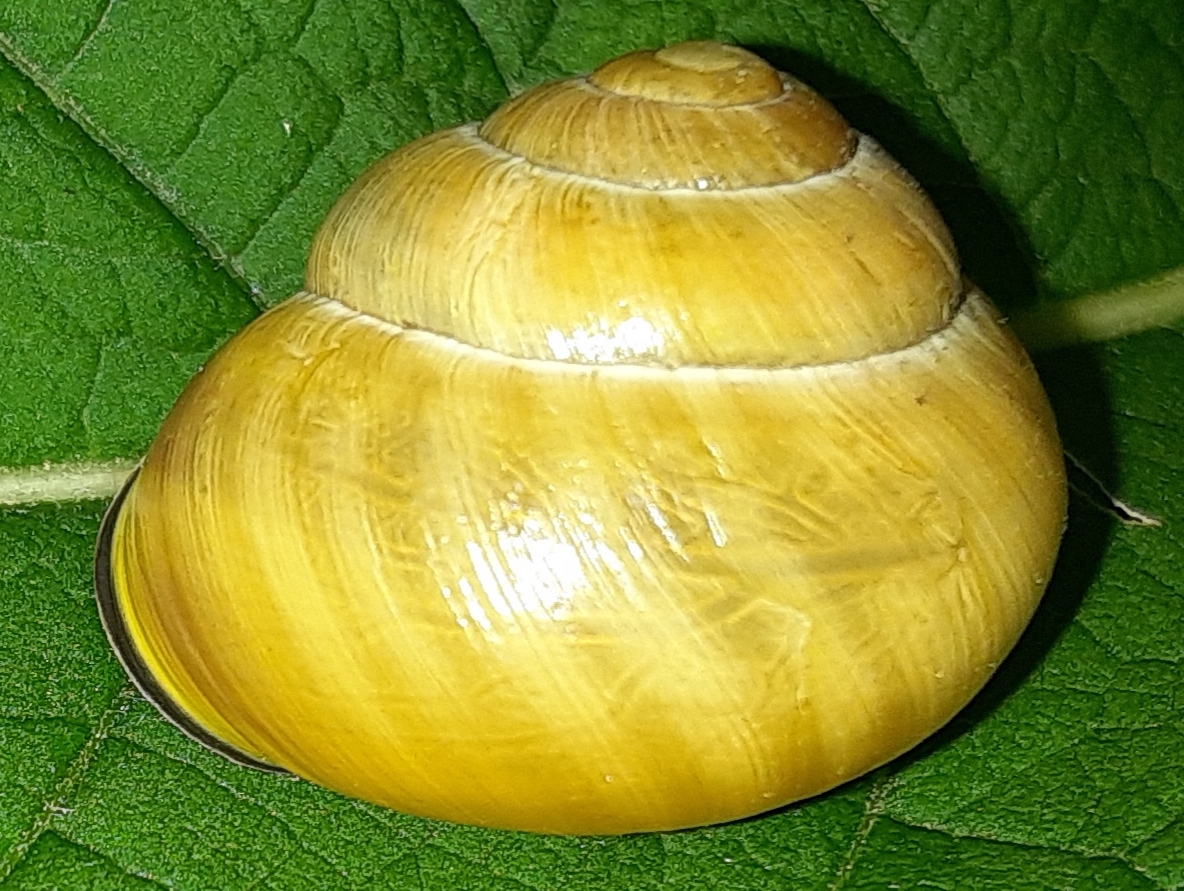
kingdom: Animalia
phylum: Mollusca
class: Gastropoda
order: Stylommatophora
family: Helicidae
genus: Cepaea
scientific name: Cepaea nemoralis
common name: Grovesnail
